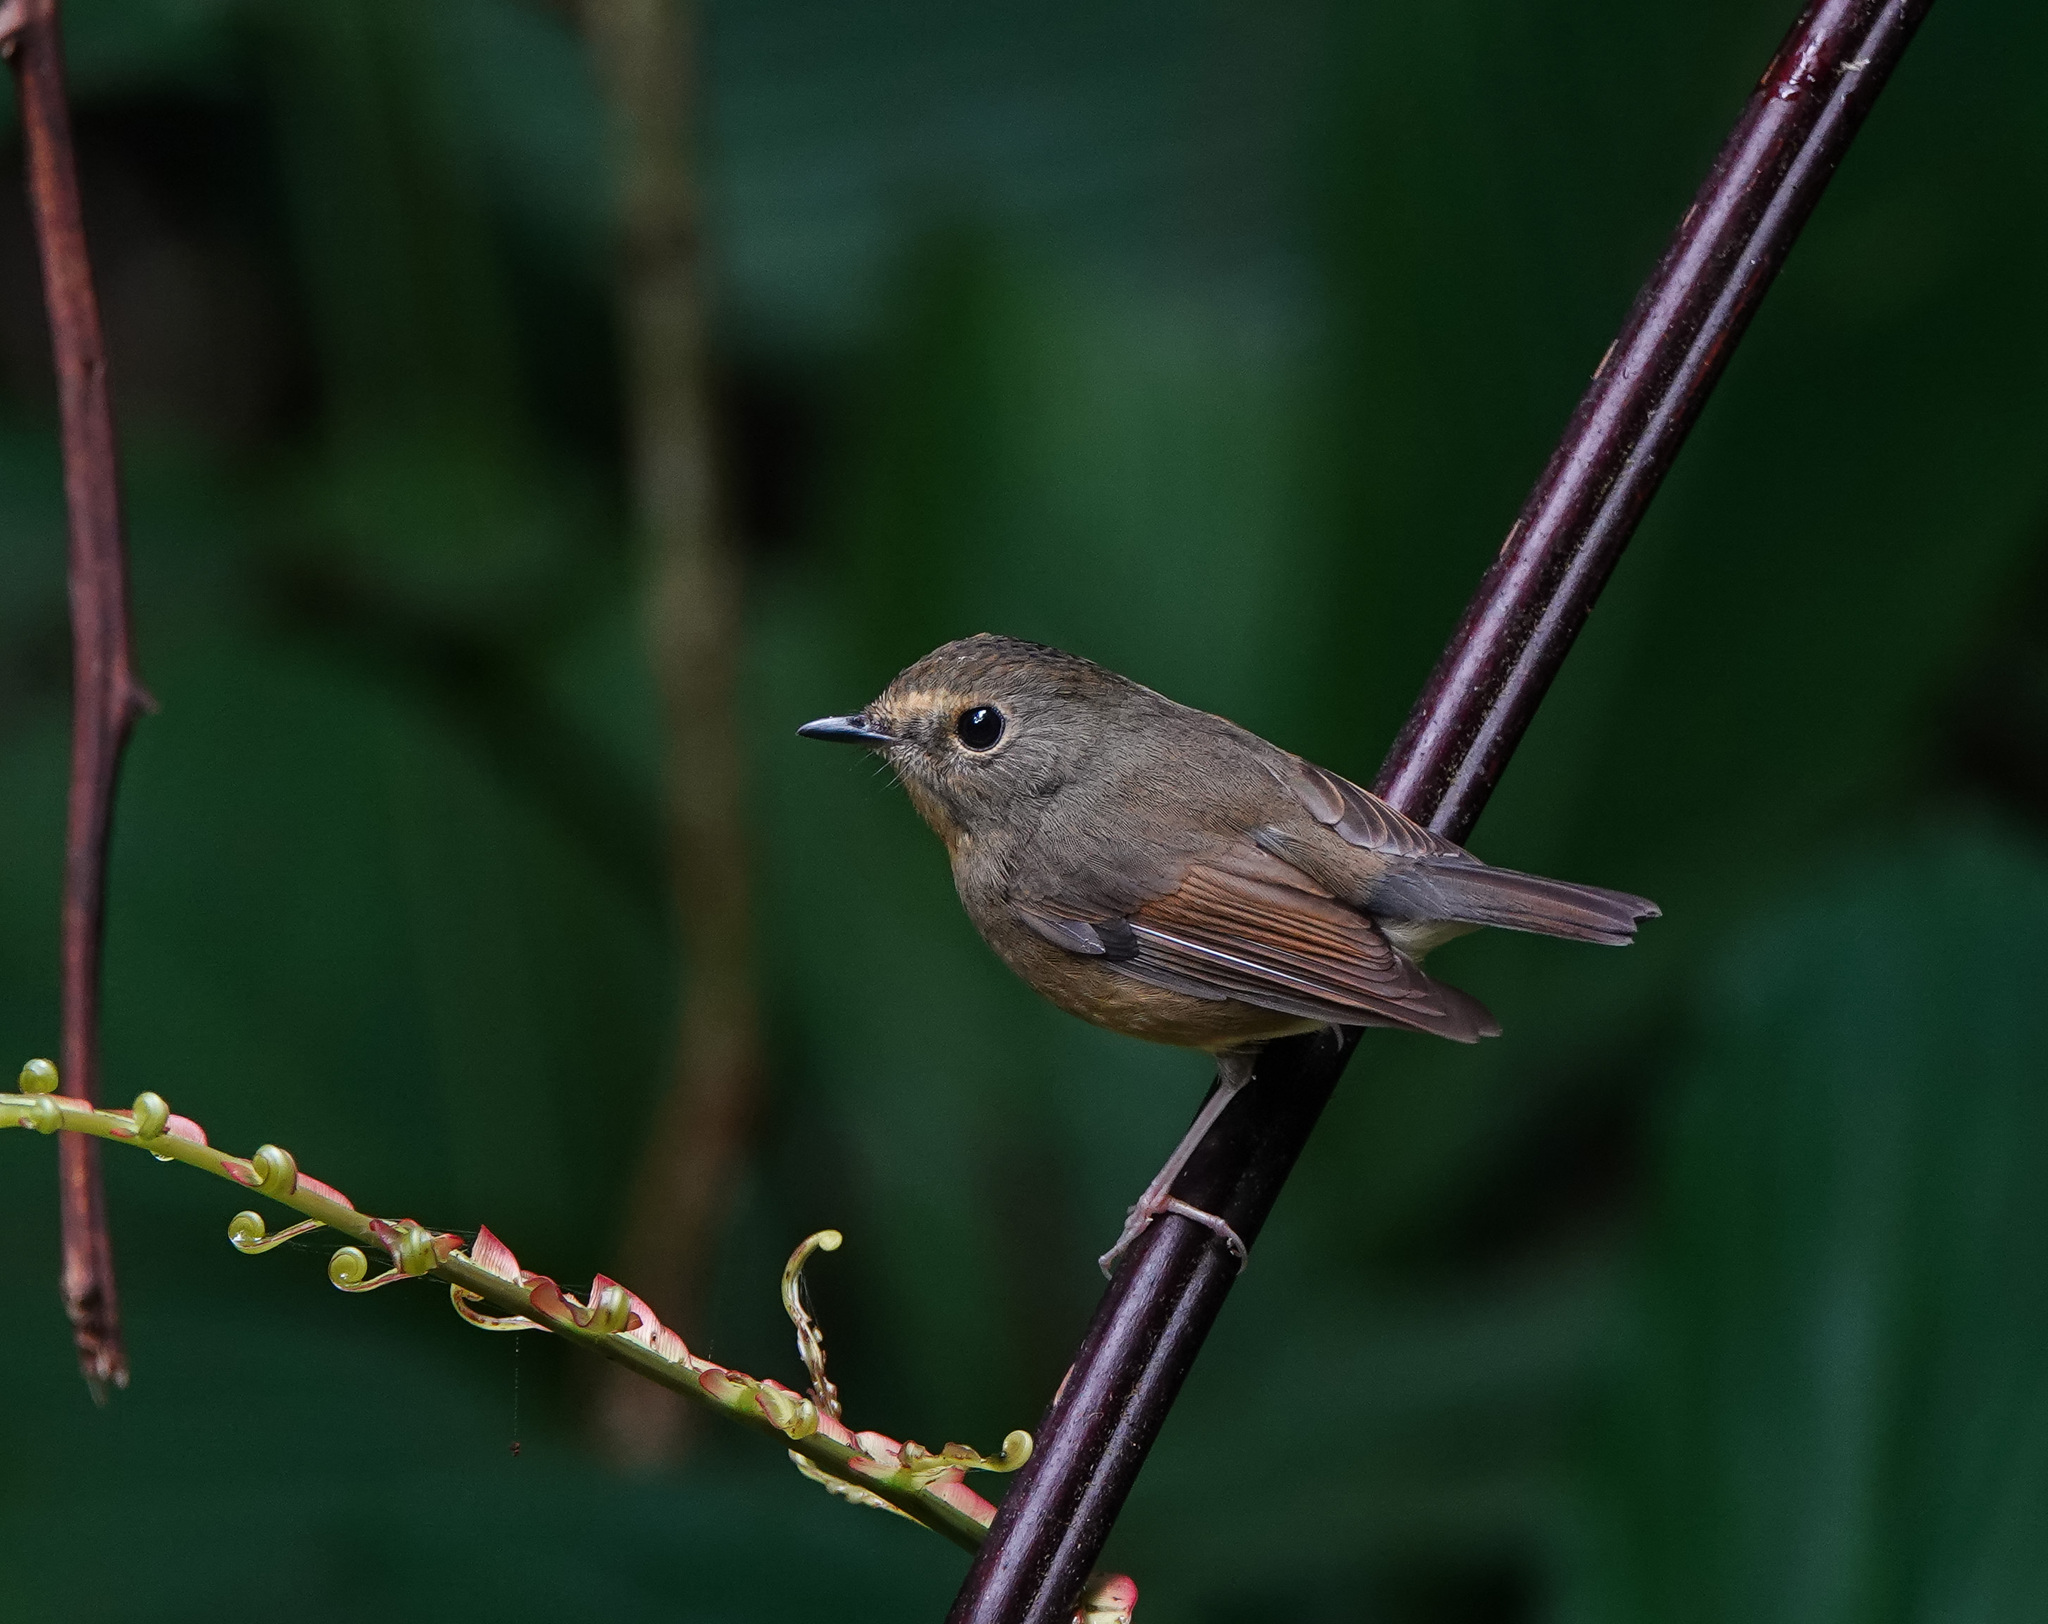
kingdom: Animalia
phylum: Chordata
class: Aves
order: Passeriformes
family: Muscicapidae
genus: Ficedula
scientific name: Ficedula hyperythra
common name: Snowy-browed flycatcher
